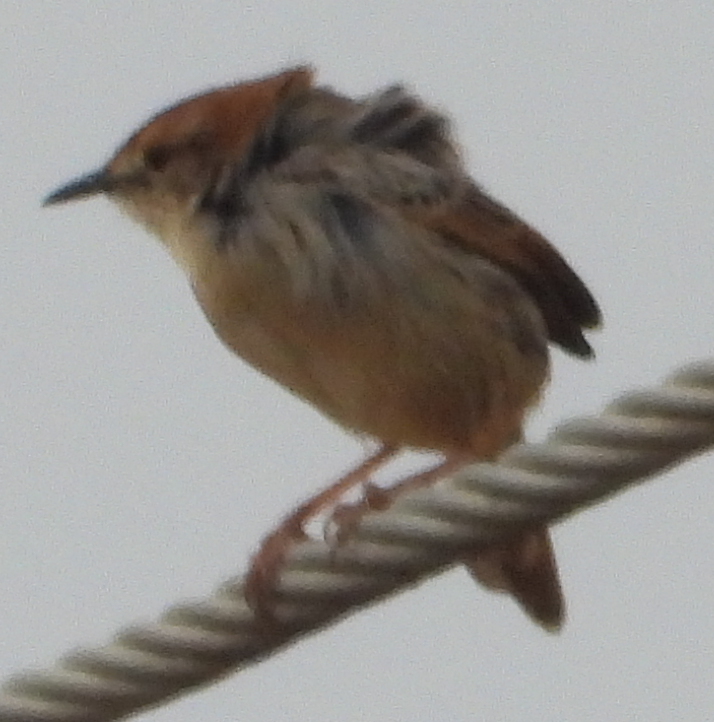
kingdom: Animalia
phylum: Chordata
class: Aves
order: Passeriformes
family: Cisticolidae
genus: Cisticola
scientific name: Cisticola tinniens
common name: Levaillant's cisticola
